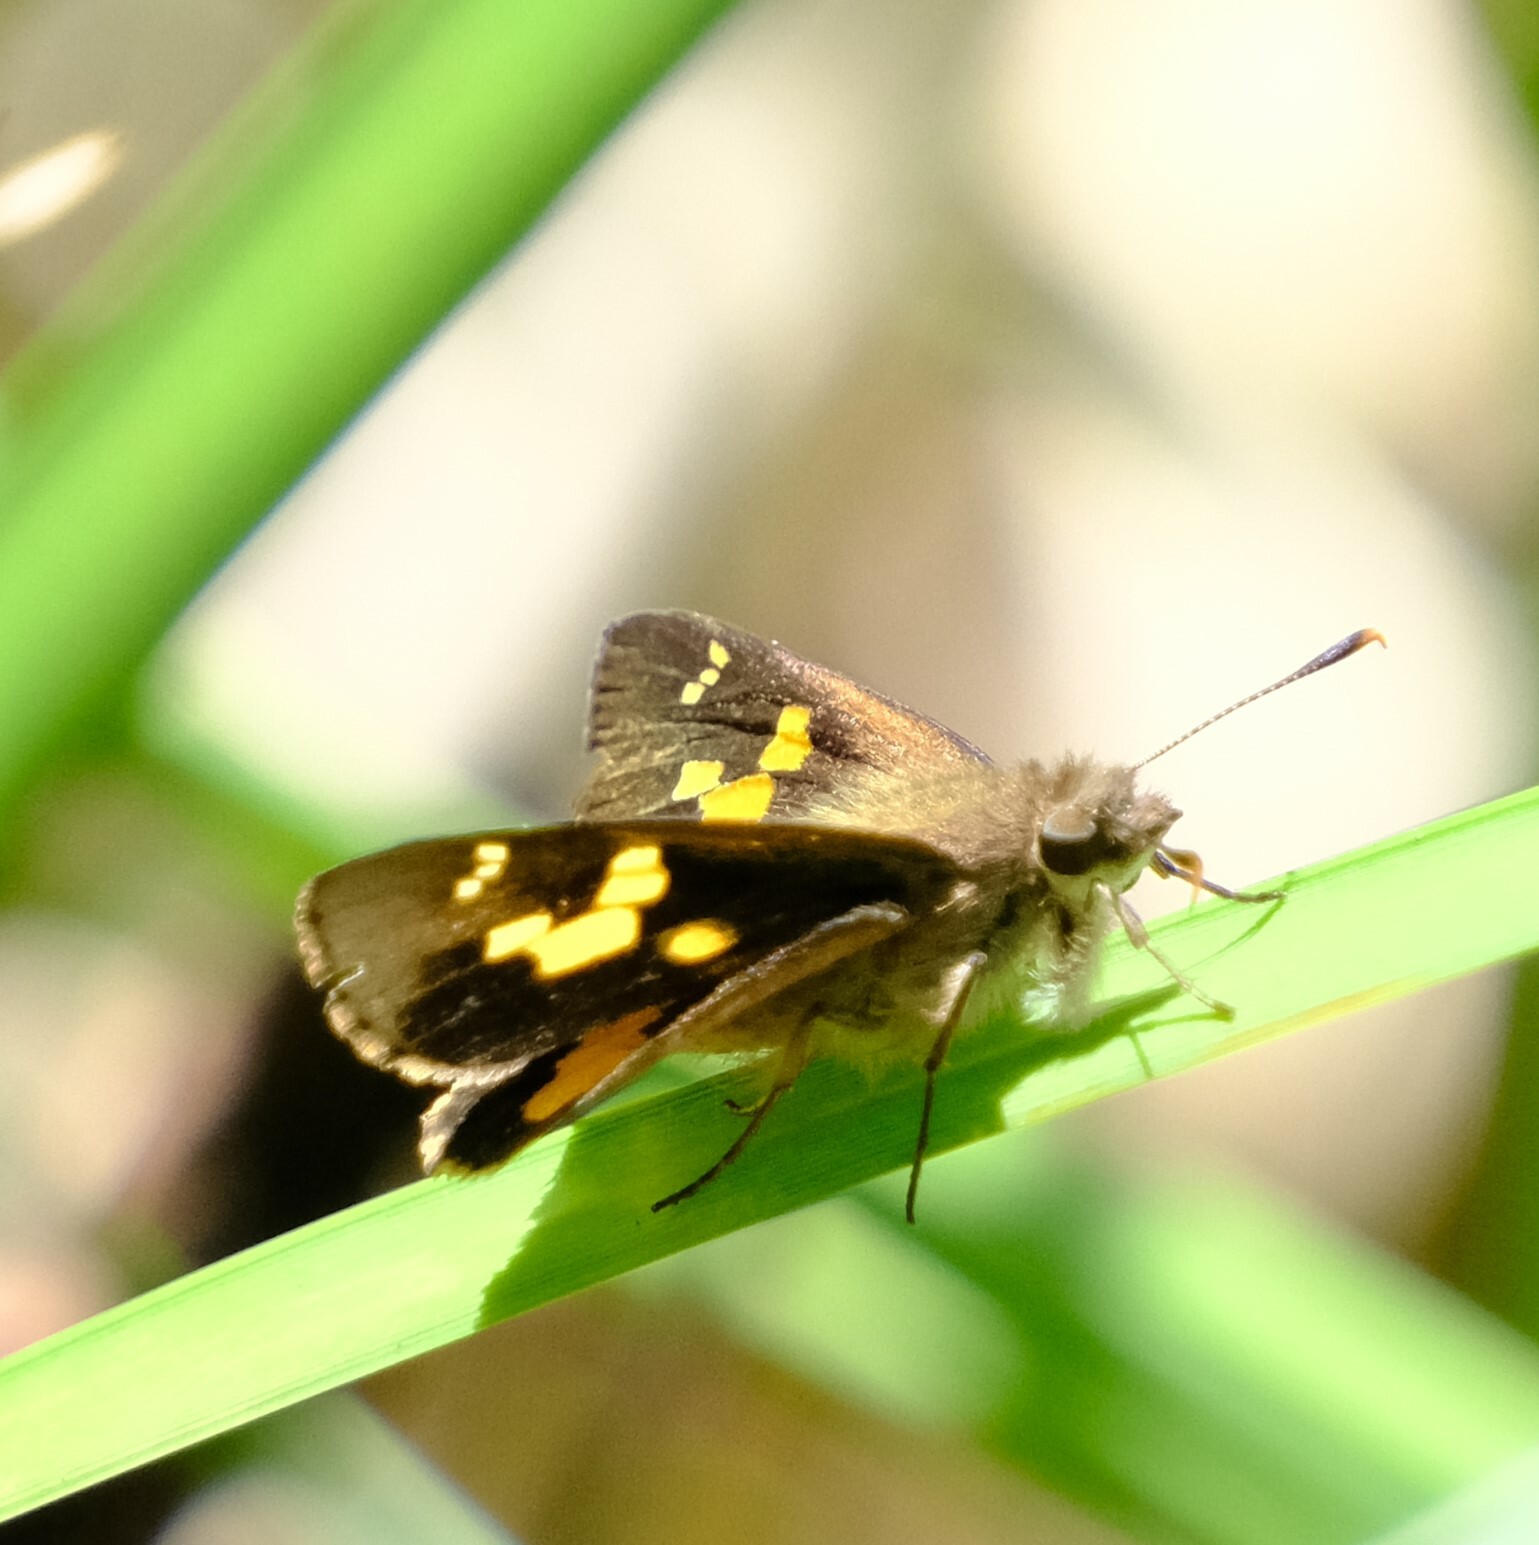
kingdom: Animalia
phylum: Arthropoda
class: Insecta
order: Lepidoptera
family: Hesperiidae
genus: Trapezites
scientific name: Trapezites praxedes
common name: Southern silver ochre
